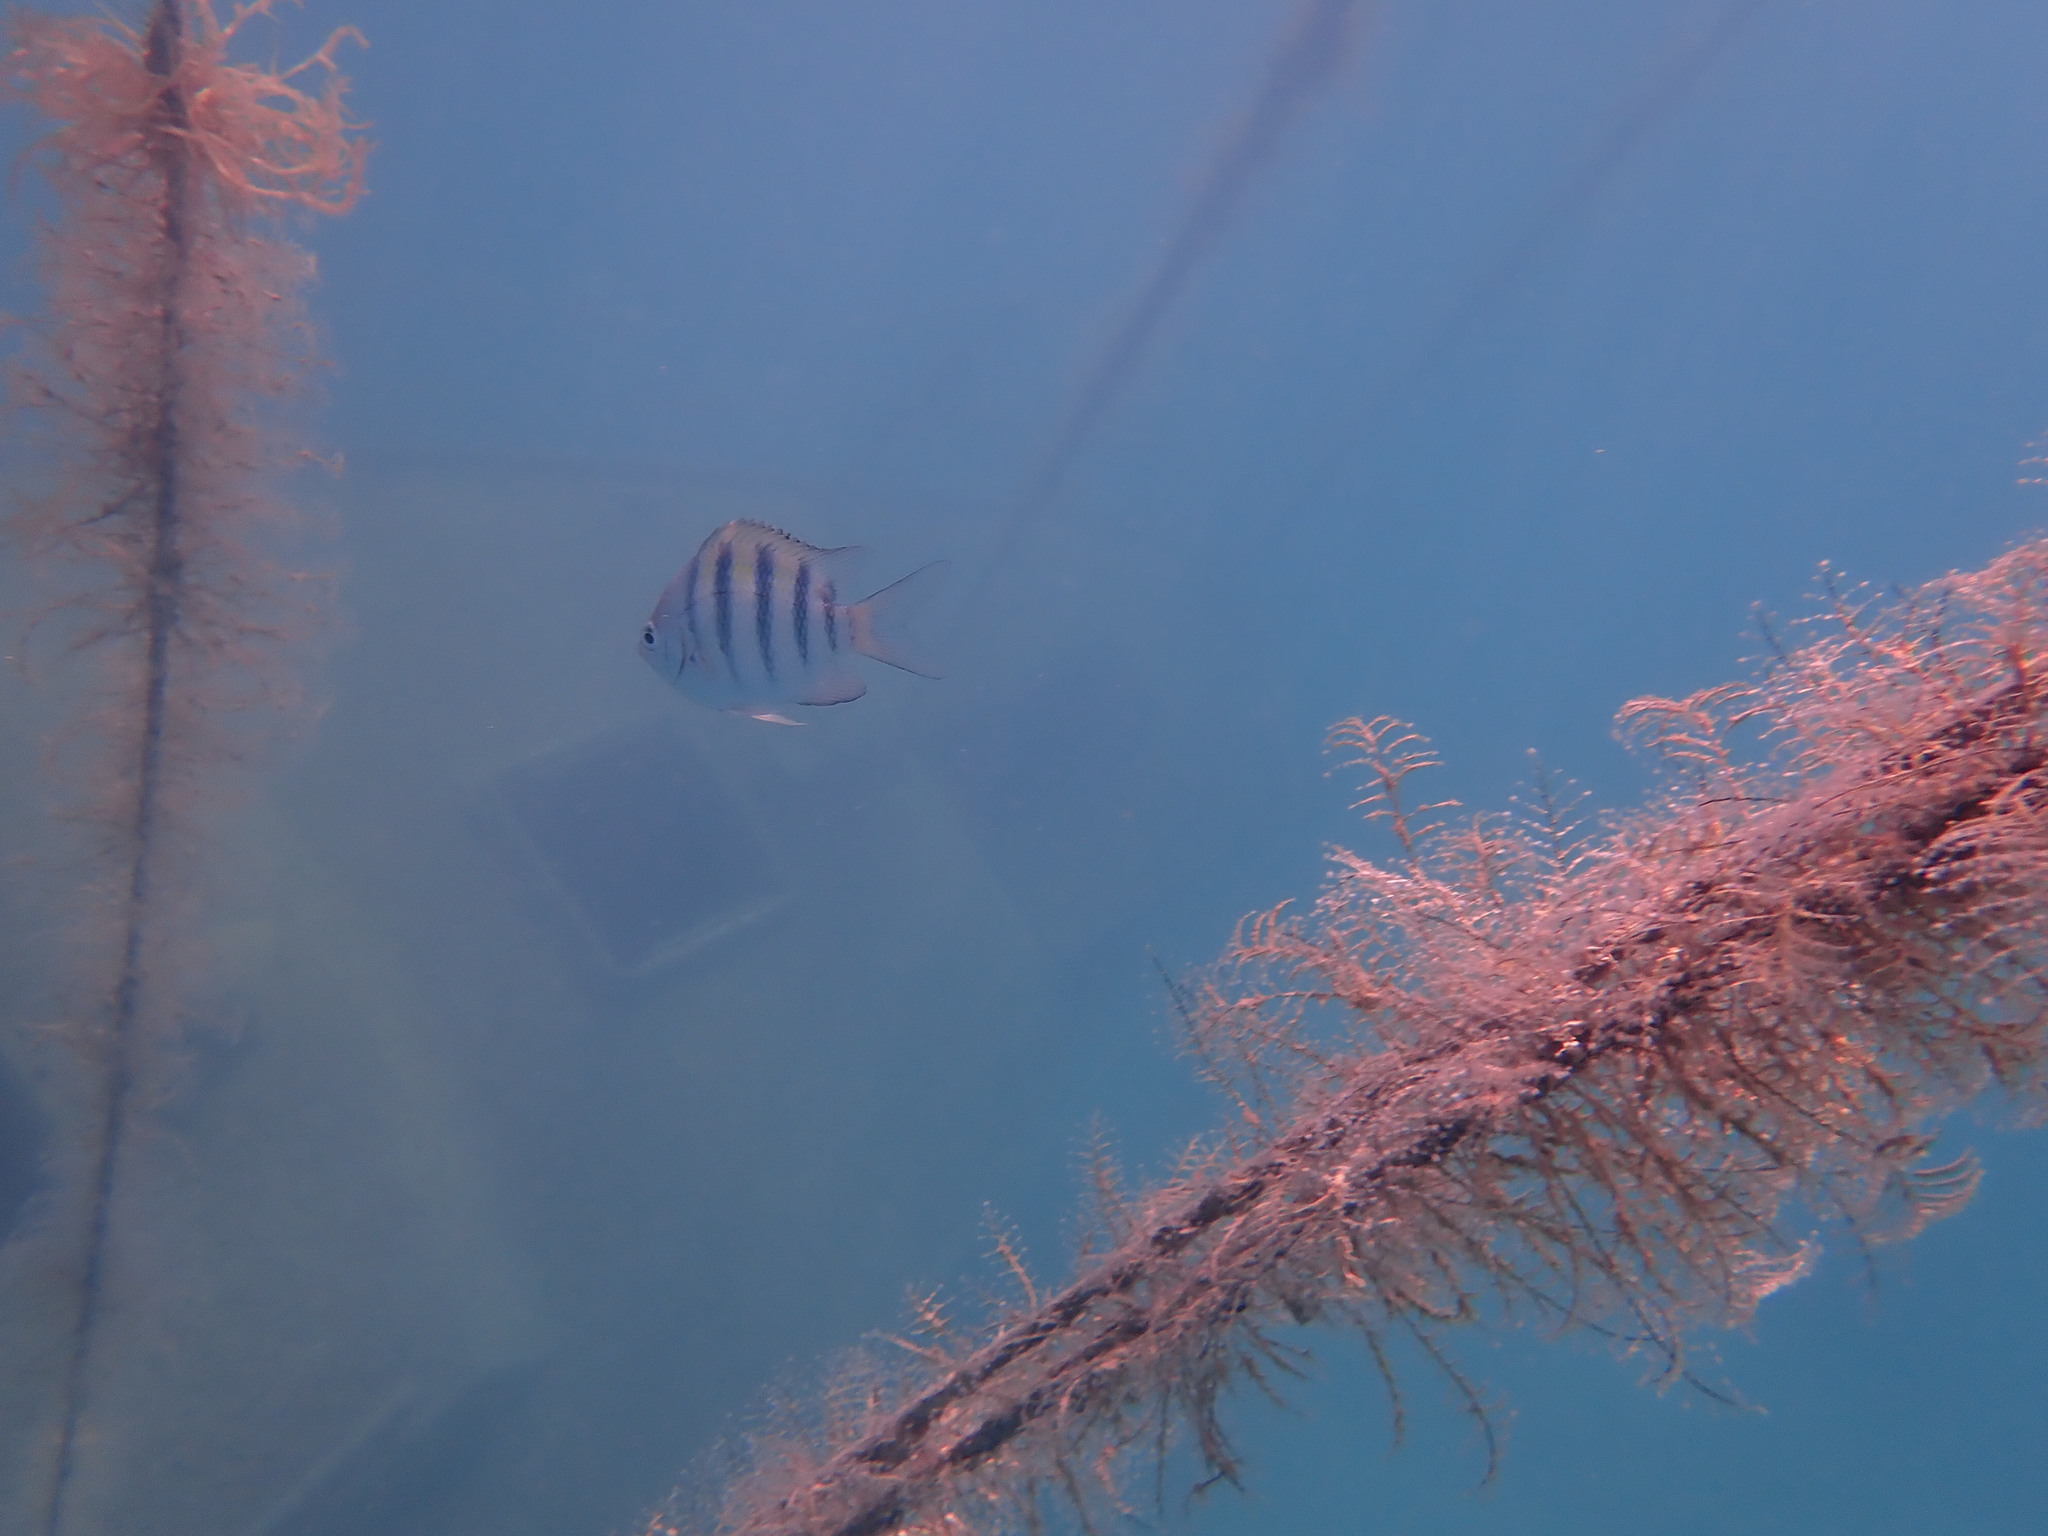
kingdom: Animalia
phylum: Chordata
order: Perciformes
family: Pomacentridae
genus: Abudefduf
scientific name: Abudefduf saxatilis
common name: Sergeant major
